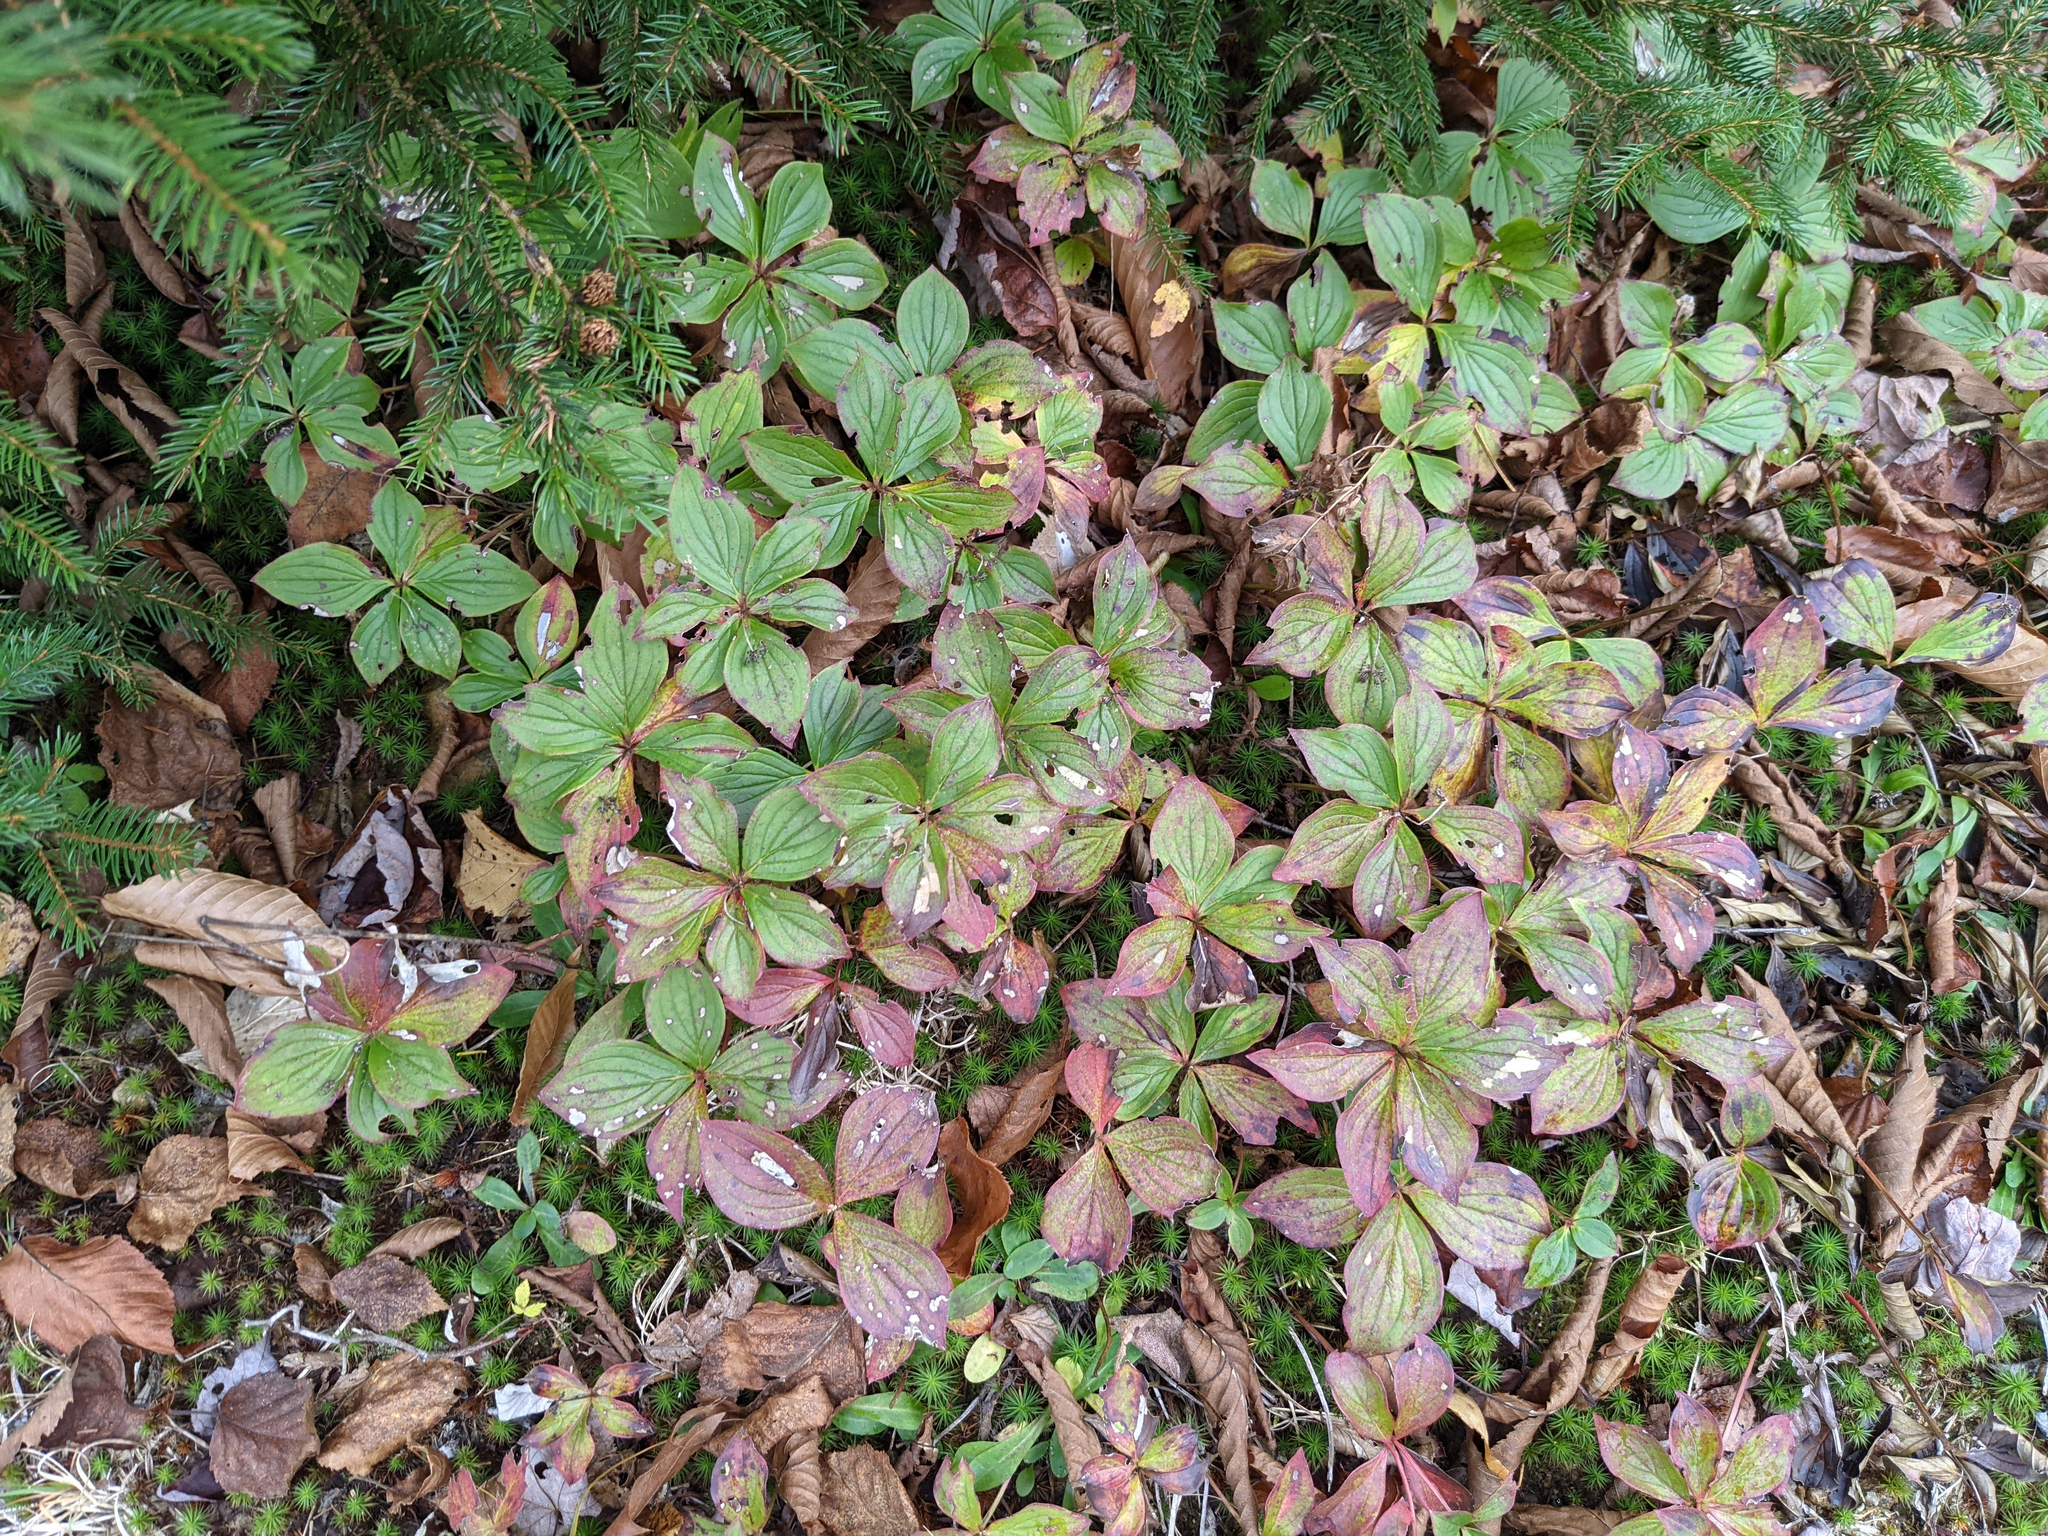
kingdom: Plantae
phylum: Tracheophyta
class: Magnoliopsida
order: Cornales
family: Cornaceae
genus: Cornus
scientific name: Cornus canadensis
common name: Creeping dogwood
